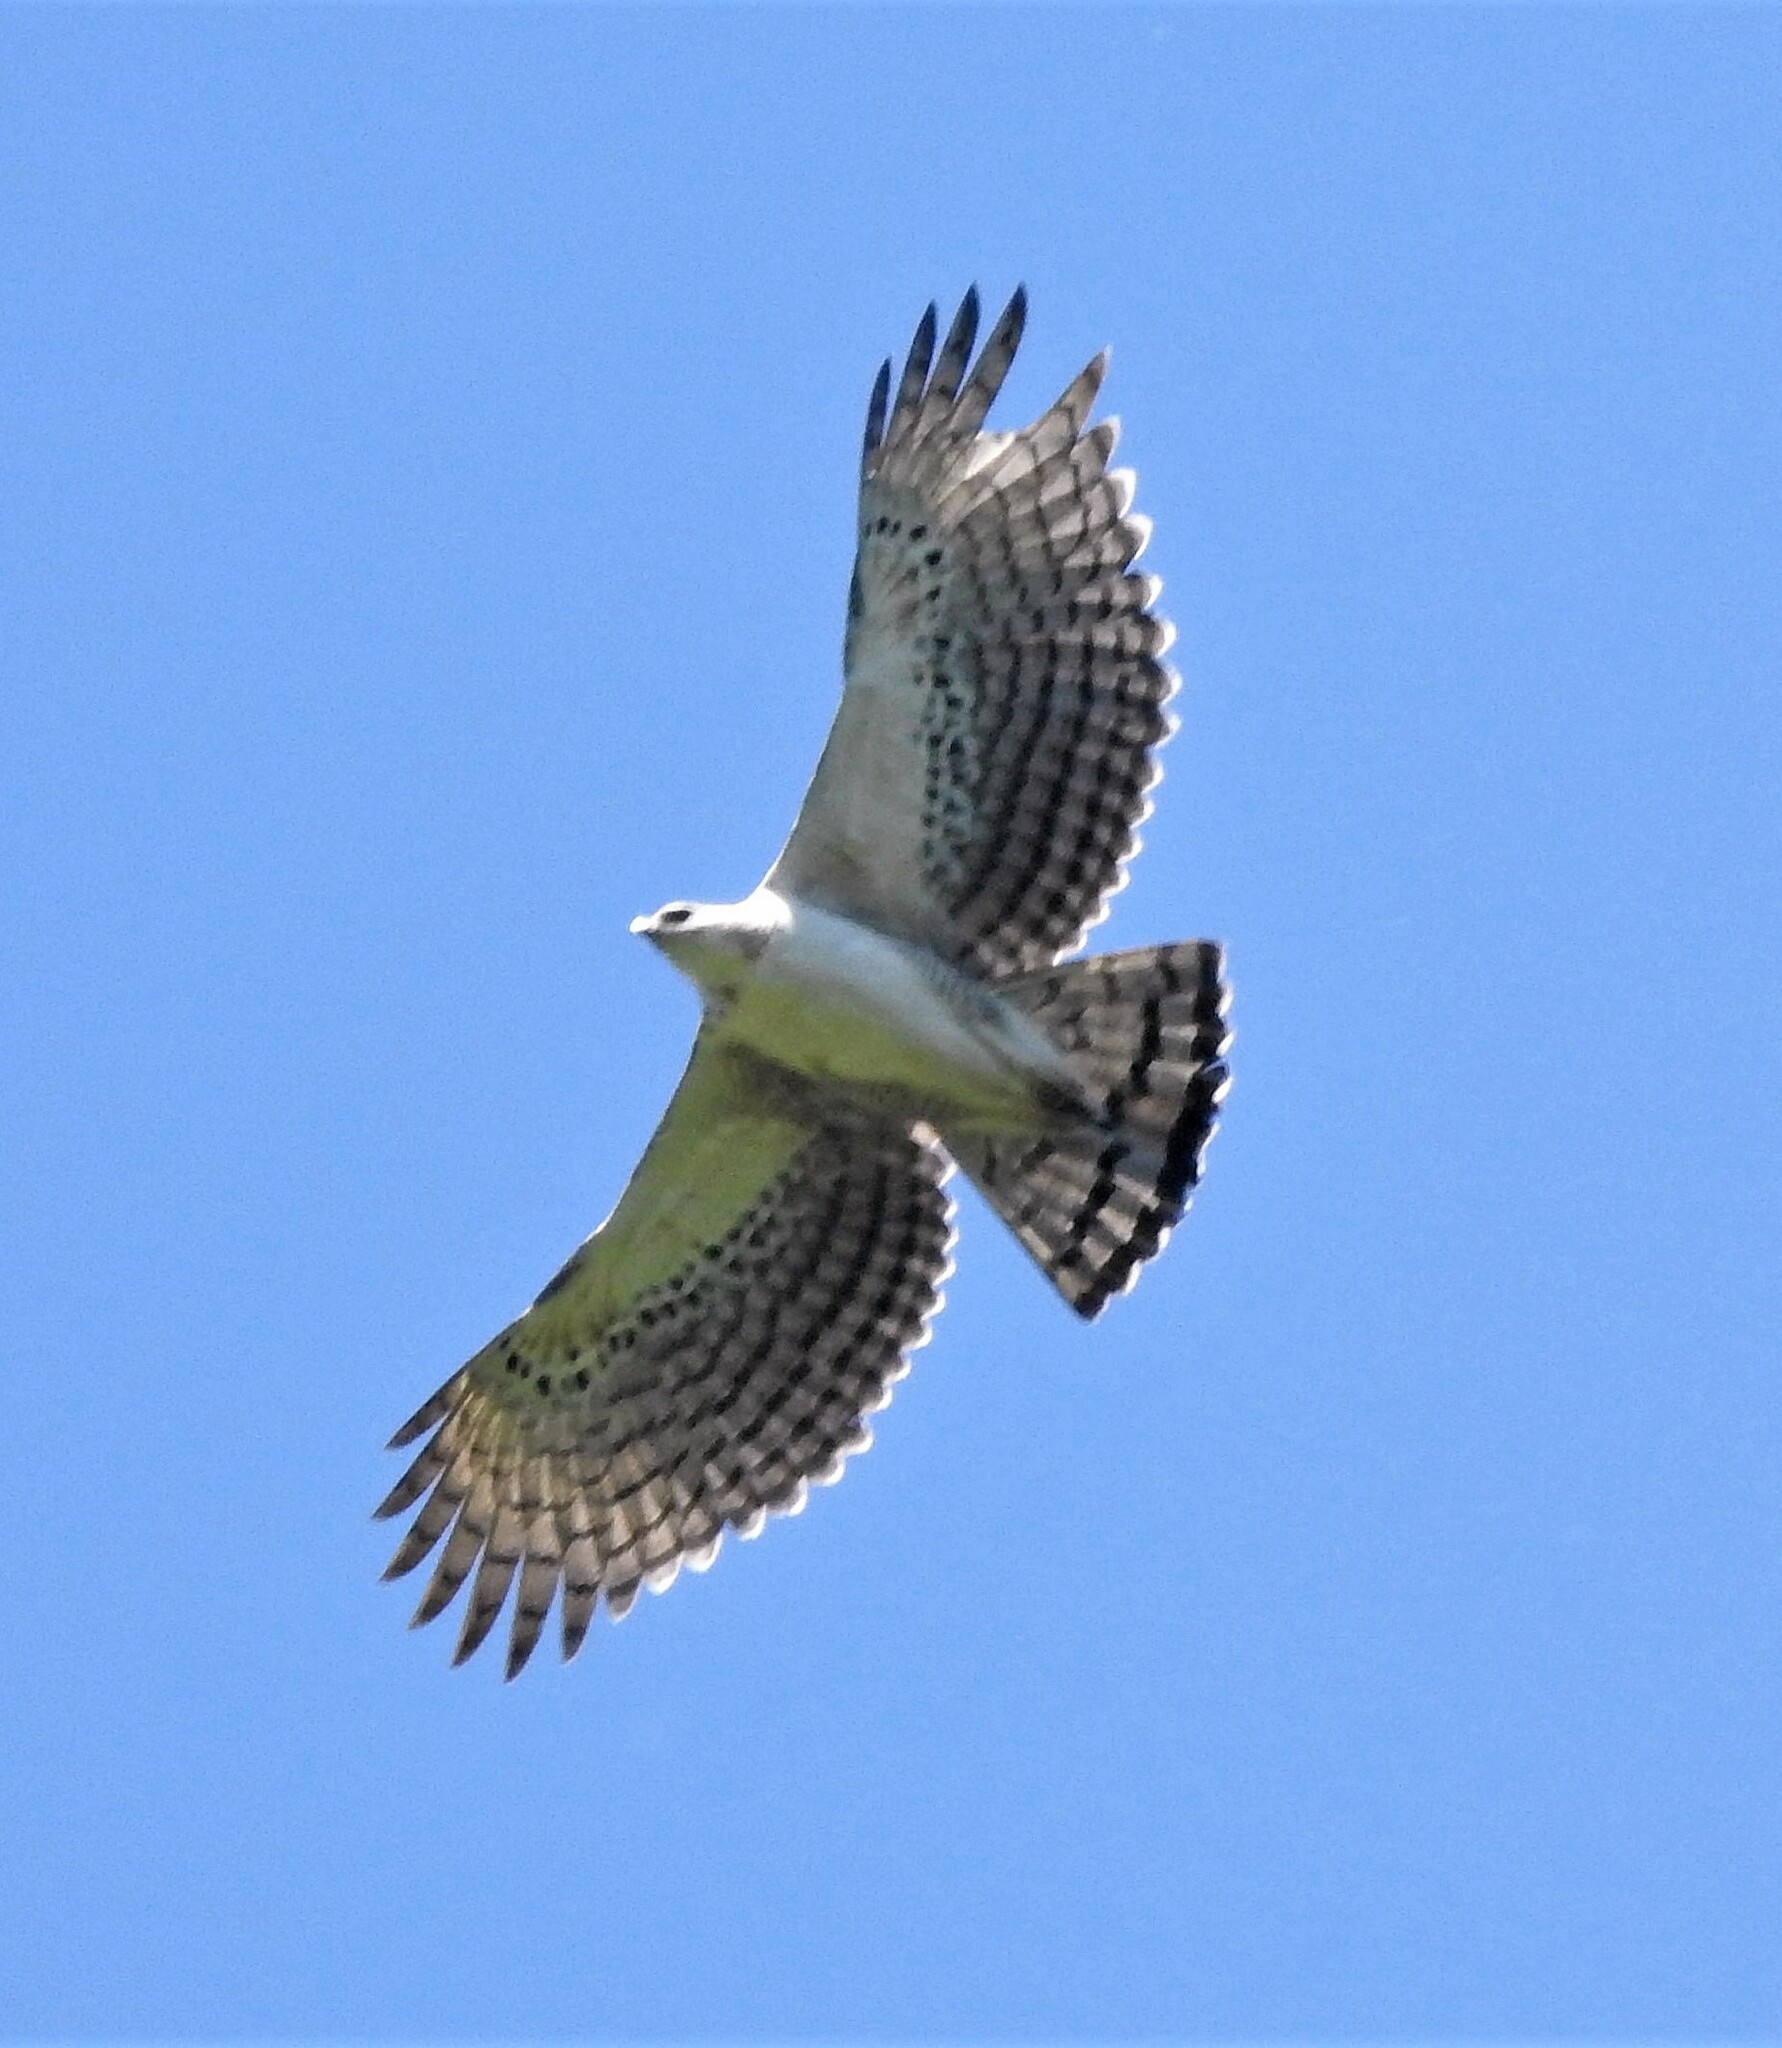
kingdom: Animalia
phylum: Chordata
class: Aves
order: Accipitriformes
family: Accipitridae
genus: Spizaetus
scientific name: Spizaetus isidori
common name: Black-and-chestnut eagle
